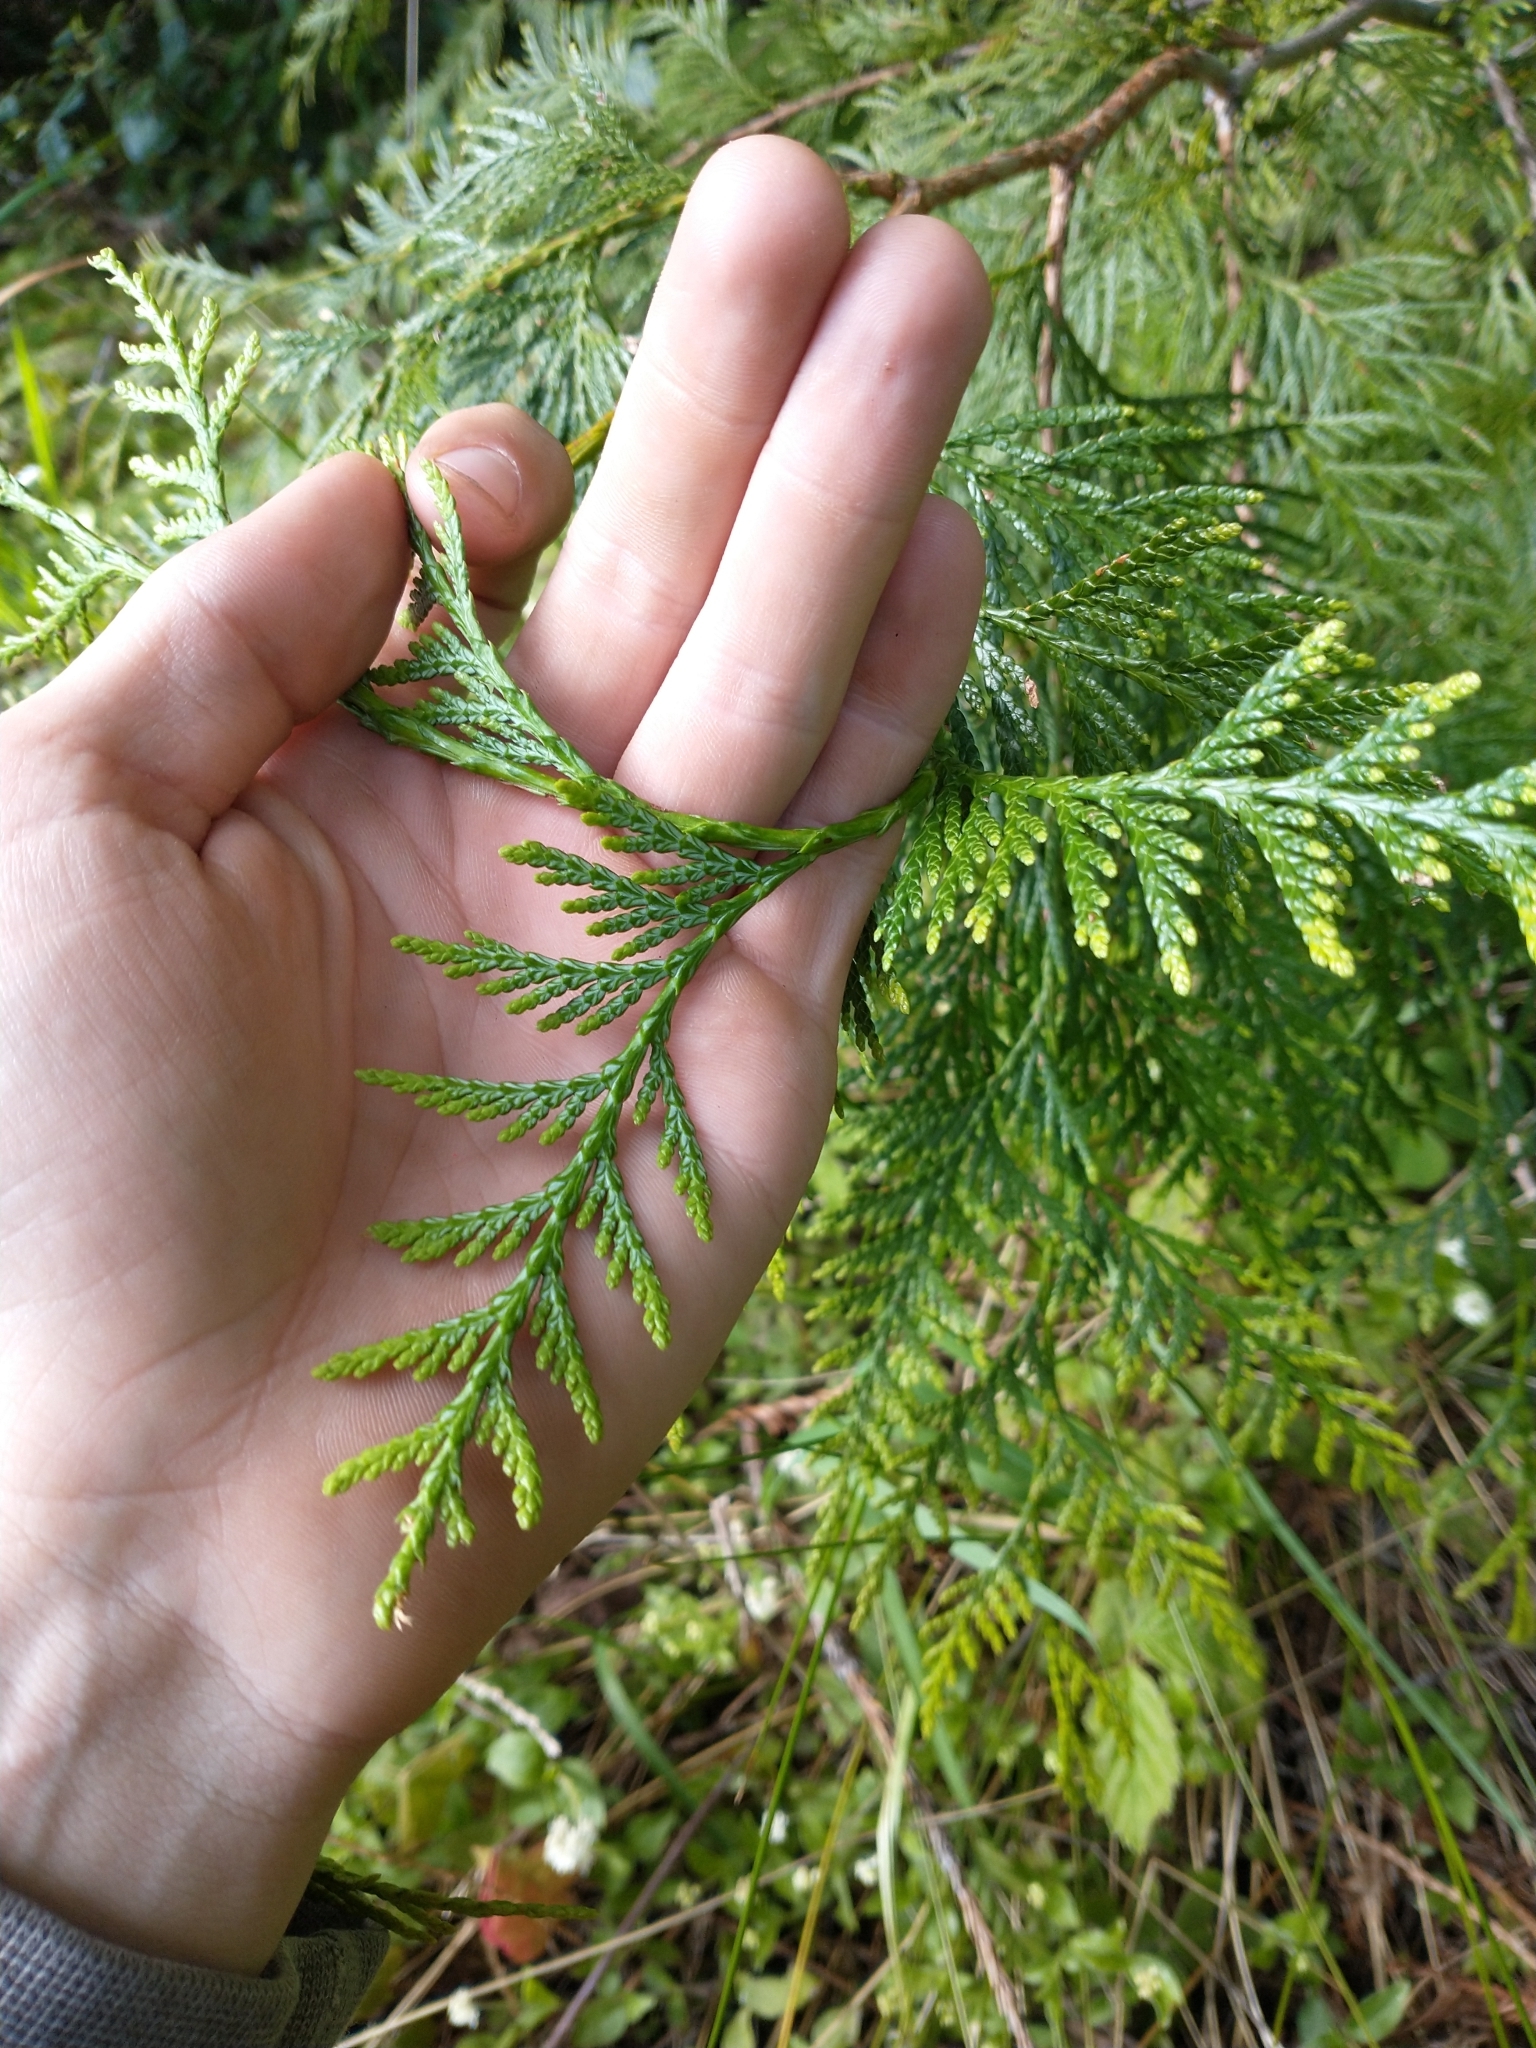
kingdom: Plantae
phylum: Tracheophyta
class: Pinopsida
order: Pinales
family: Cupressaceae
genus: Thuja
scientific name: Thuja plicata
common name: Western red-cedar
